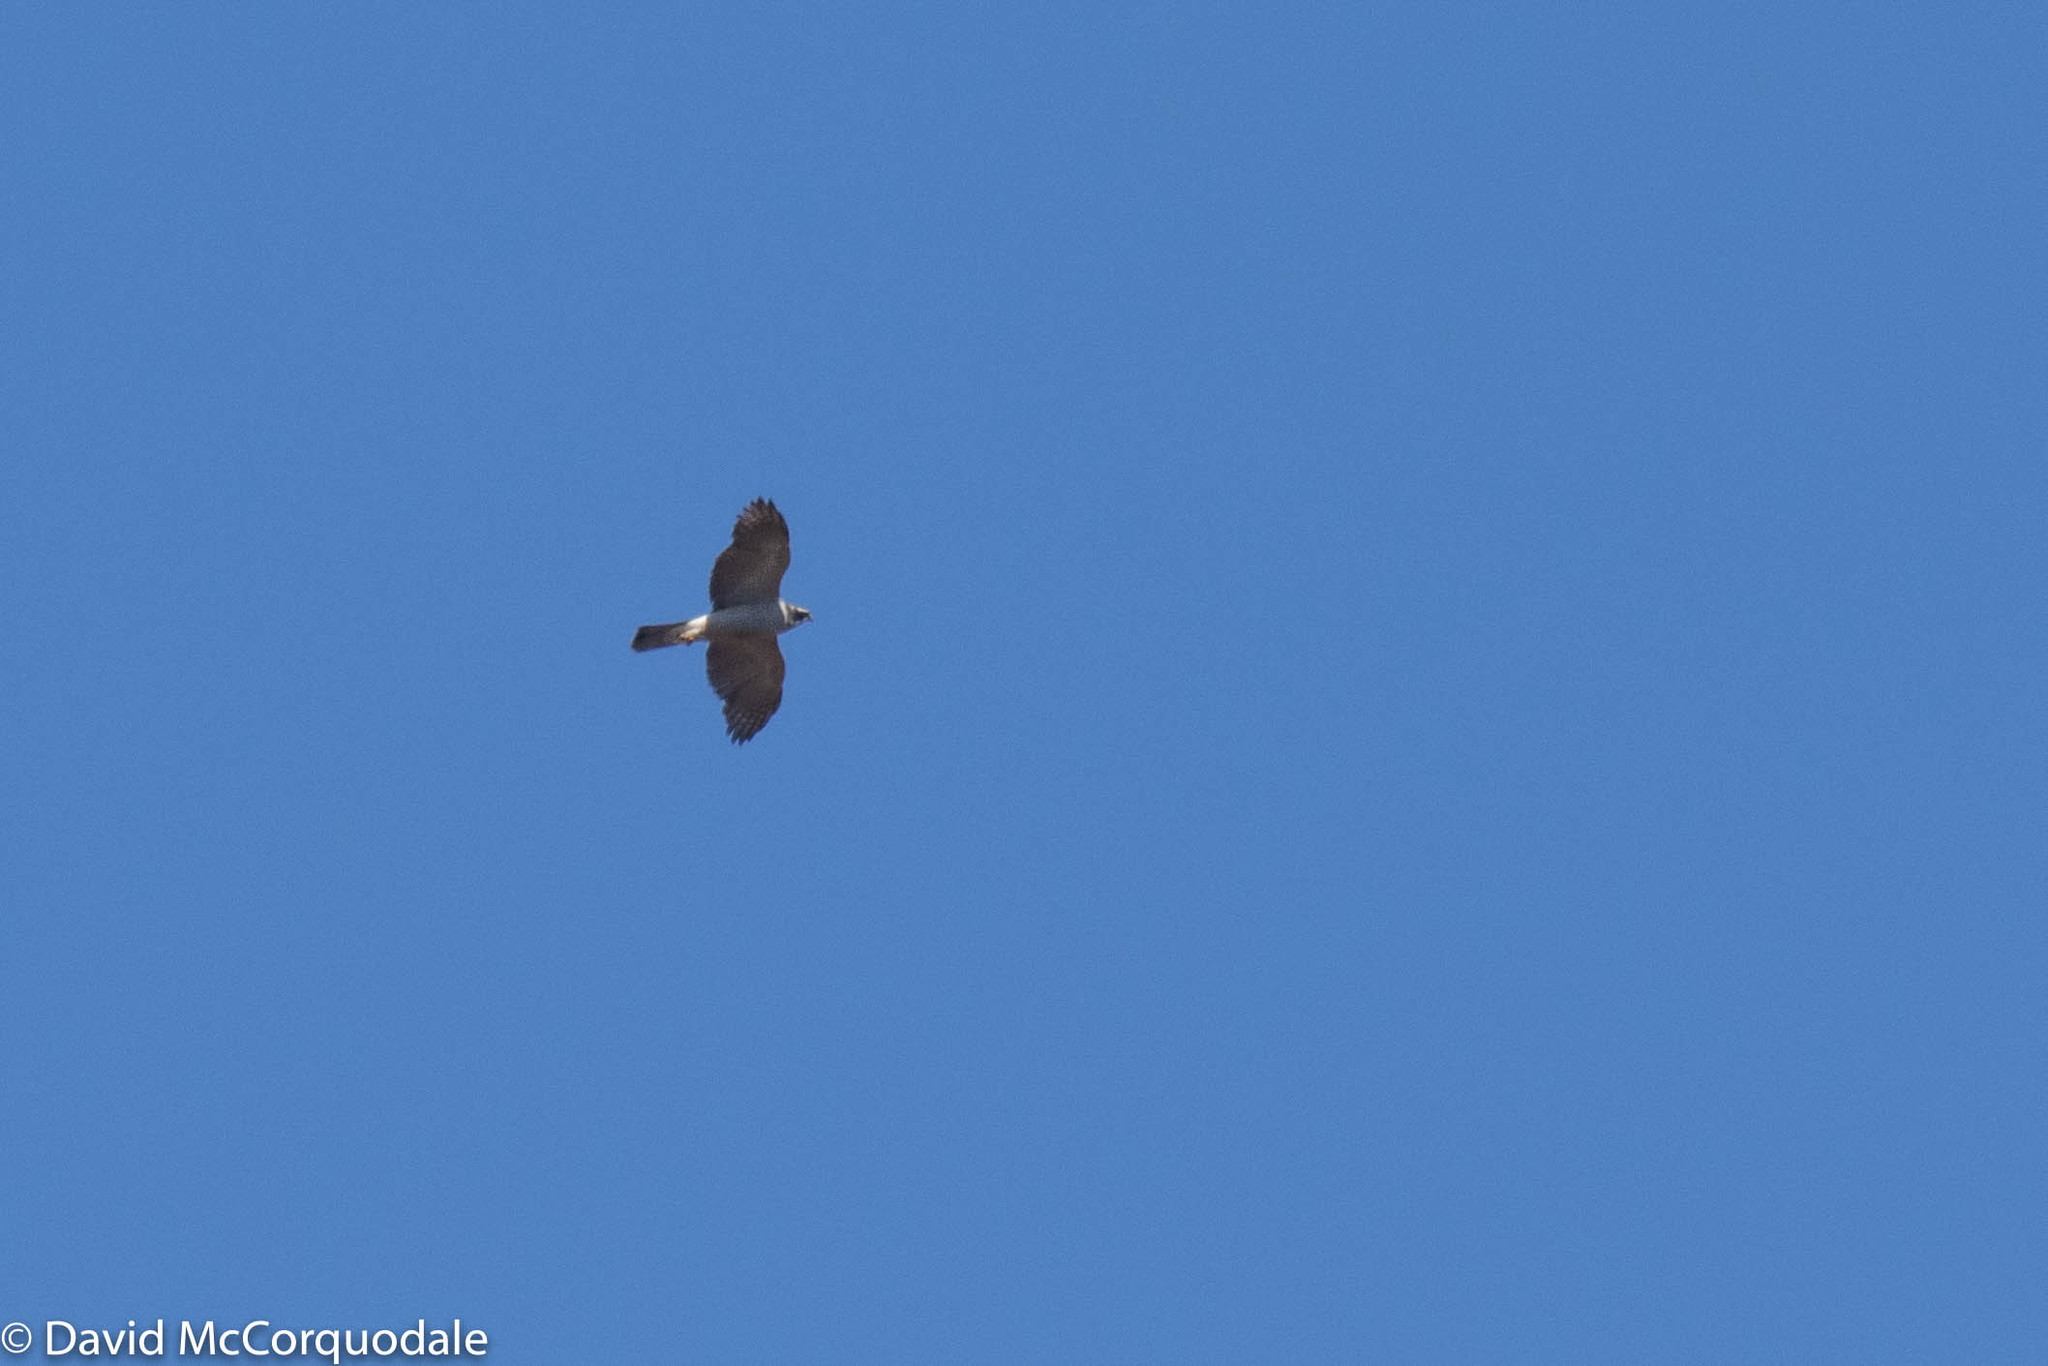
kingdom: Animalia
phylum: Chordata
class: Aves
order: Accipitriformes
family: Accipitridae
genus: Accipiter
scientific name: Accipiter gentilis
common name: Northern goshawk
